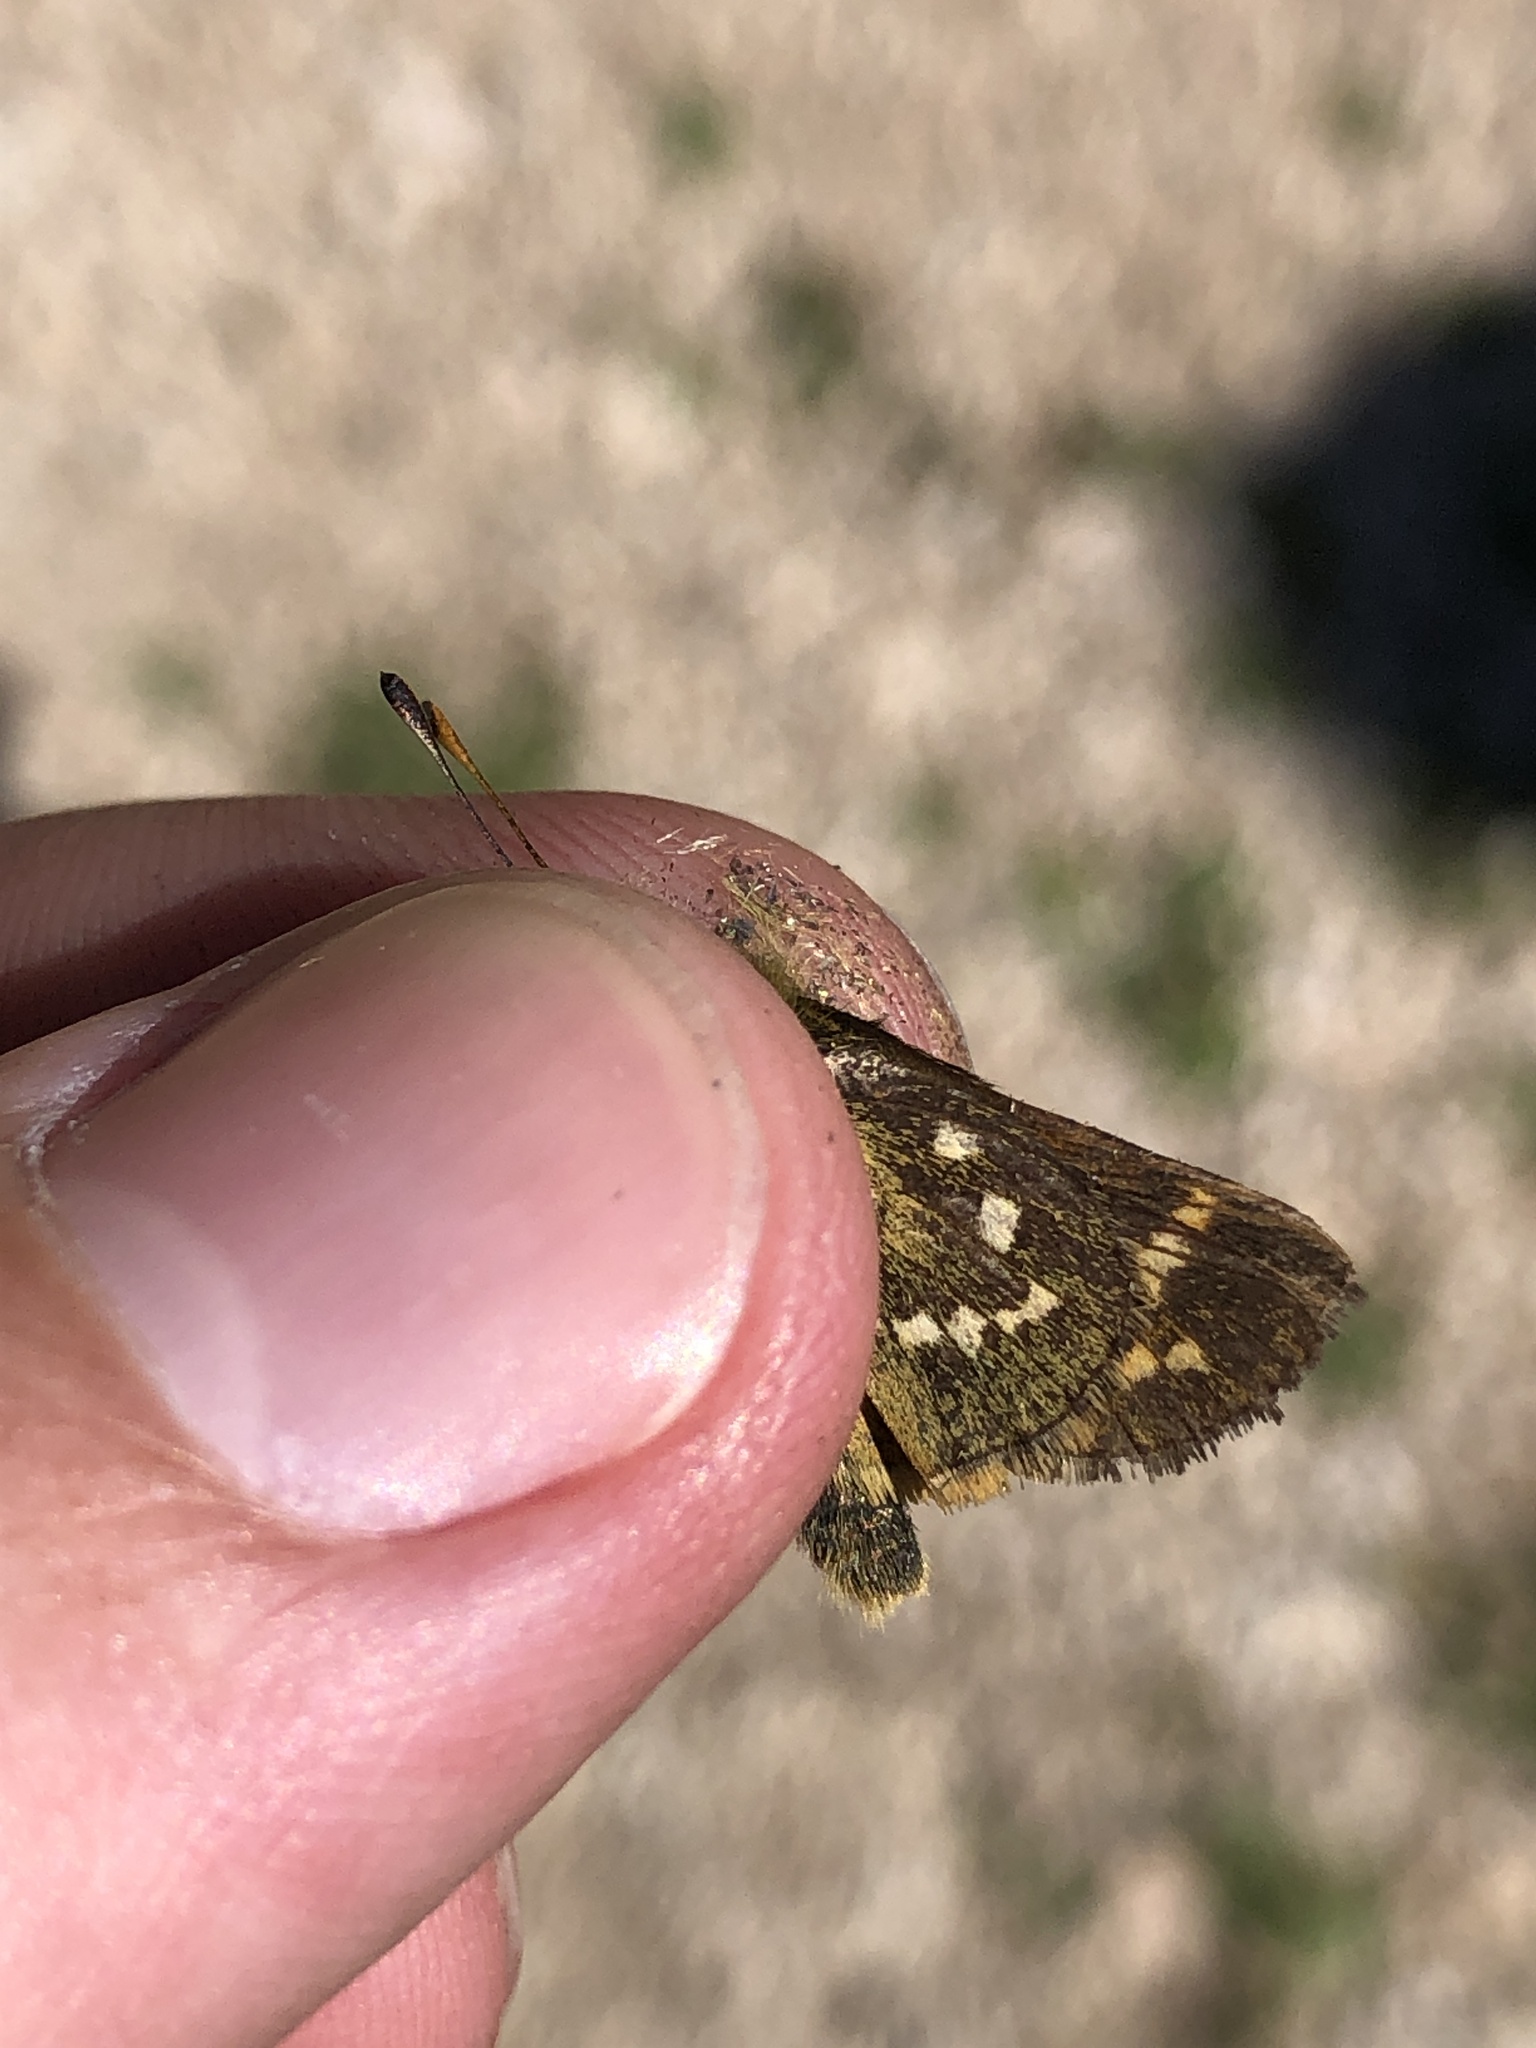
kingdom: Animalia
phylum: Arthropoda
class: Insecta
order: Lepidoptera
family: Hesperiidae
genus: Hesperia
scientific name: Hesperia comma
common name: Common branded skipper
